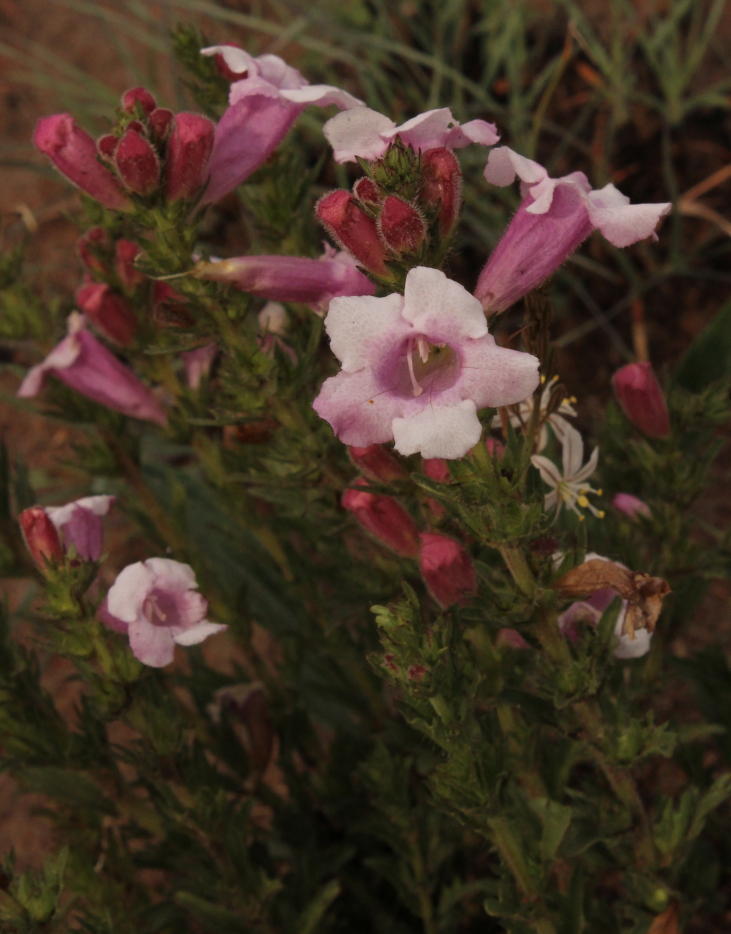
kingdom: Plantae
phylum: Tracheophyta
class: Magnoliopsida
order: Lamiales
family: Orobanchaceae
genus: Graderia
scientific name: Graderia scabra
